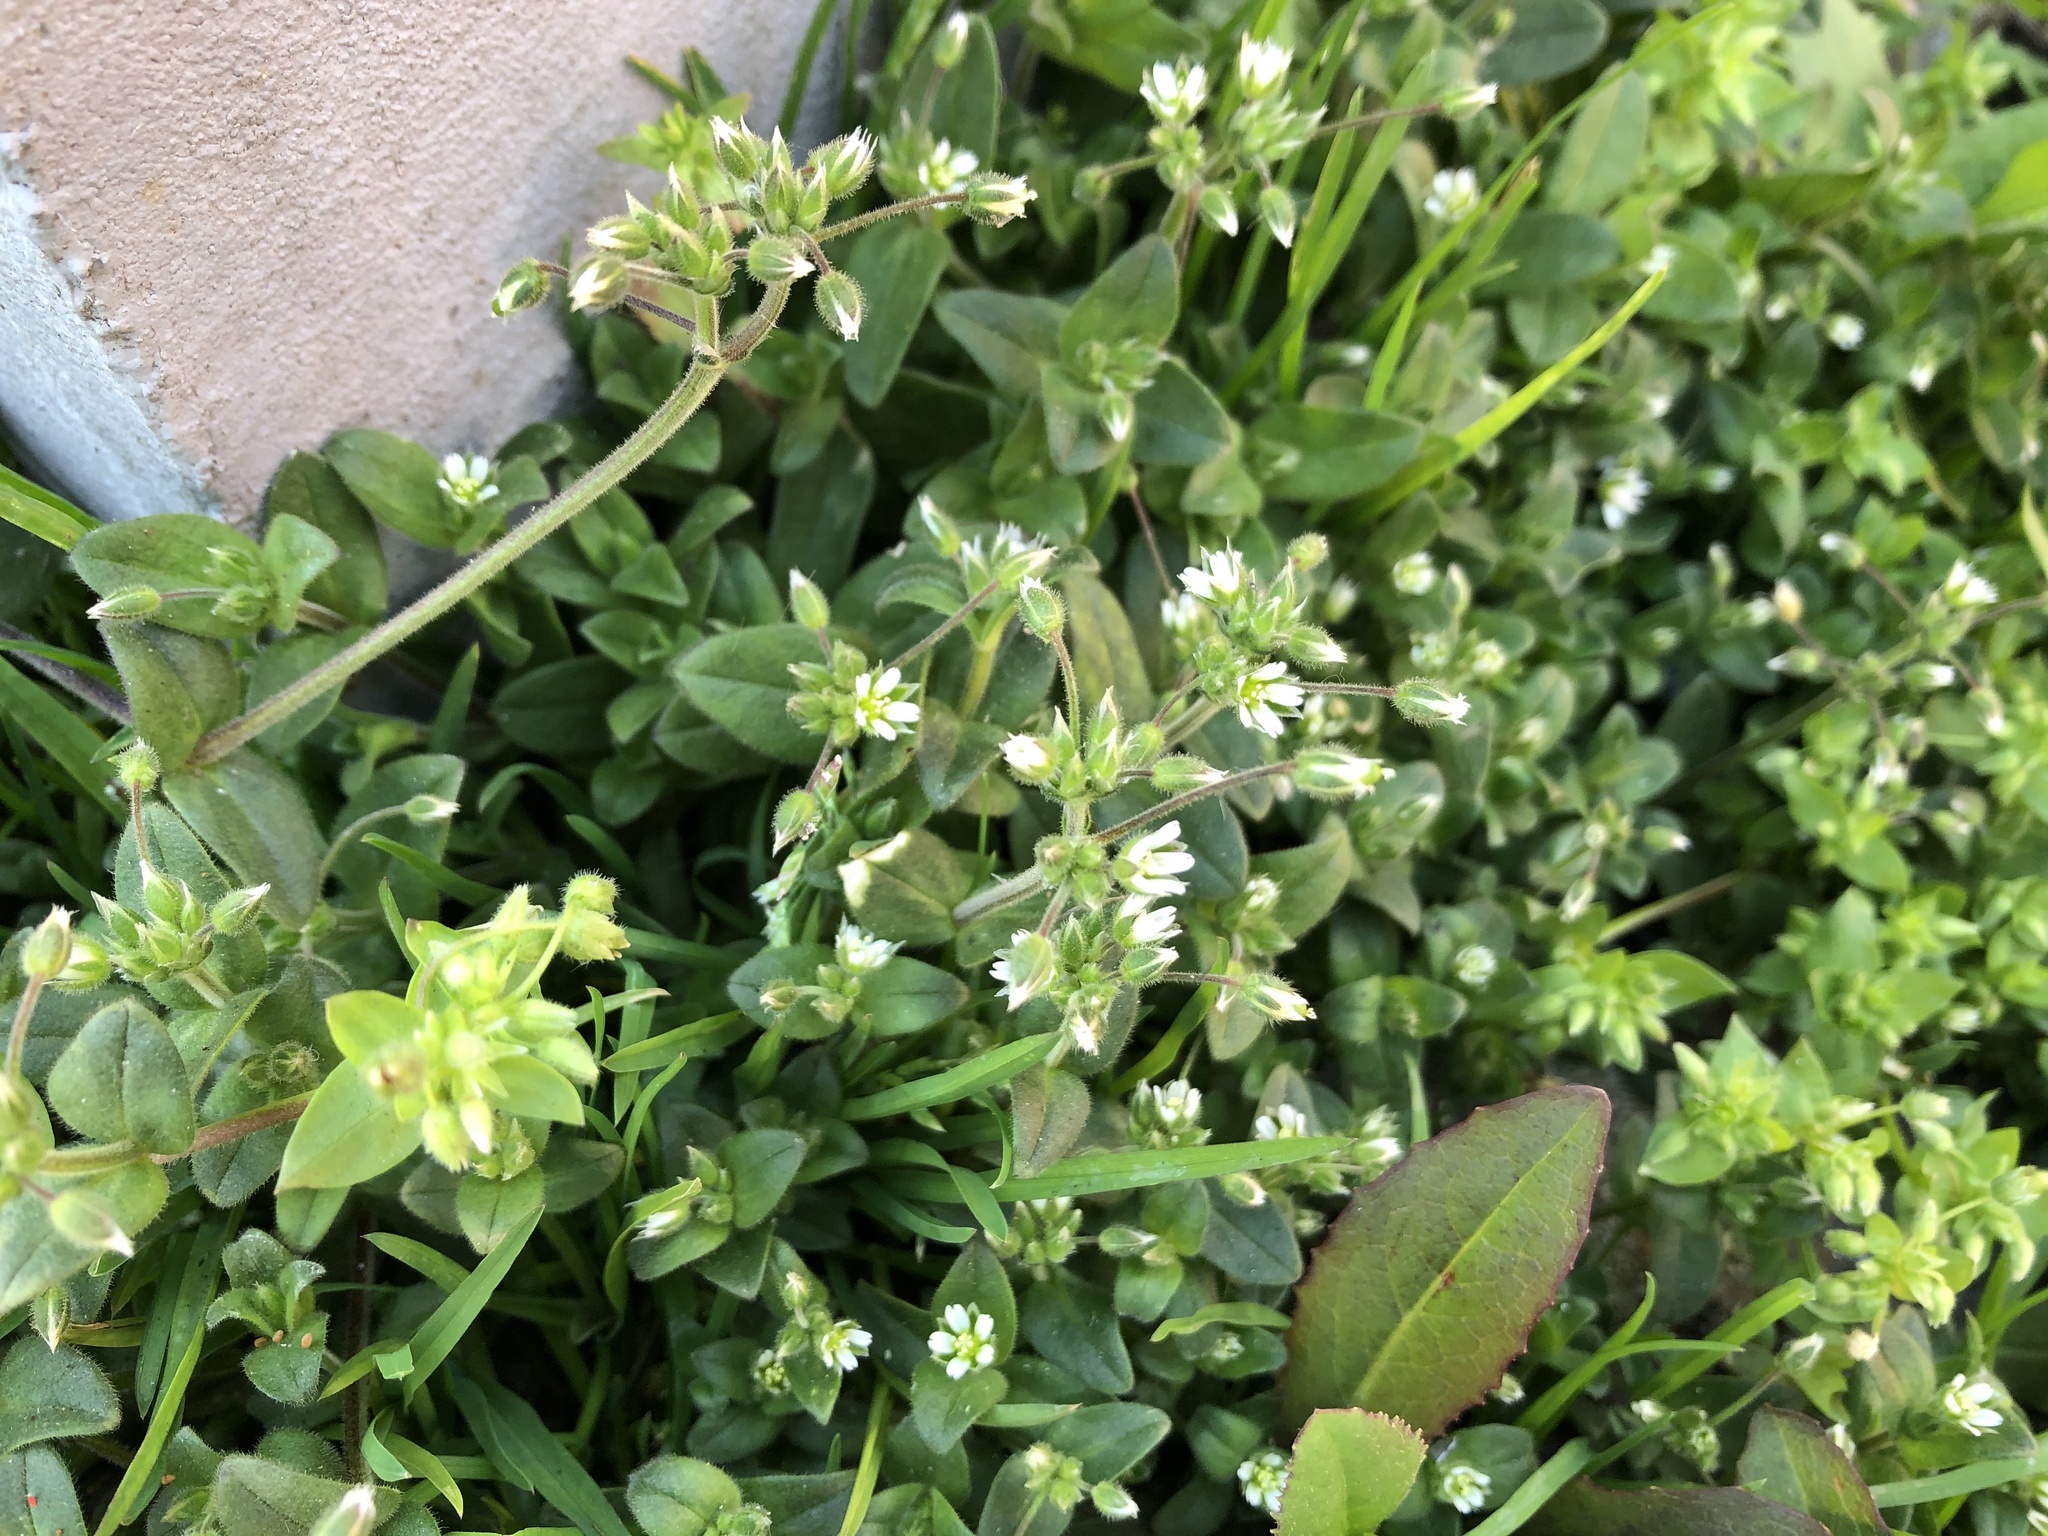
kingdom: Plantae
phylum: Tracheophyta
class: Magnoliopsida
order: Caryophyllales
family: Caryophyllaceae
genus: Cerastium
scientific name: Cerastium holosteoides
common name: Big chickweed
